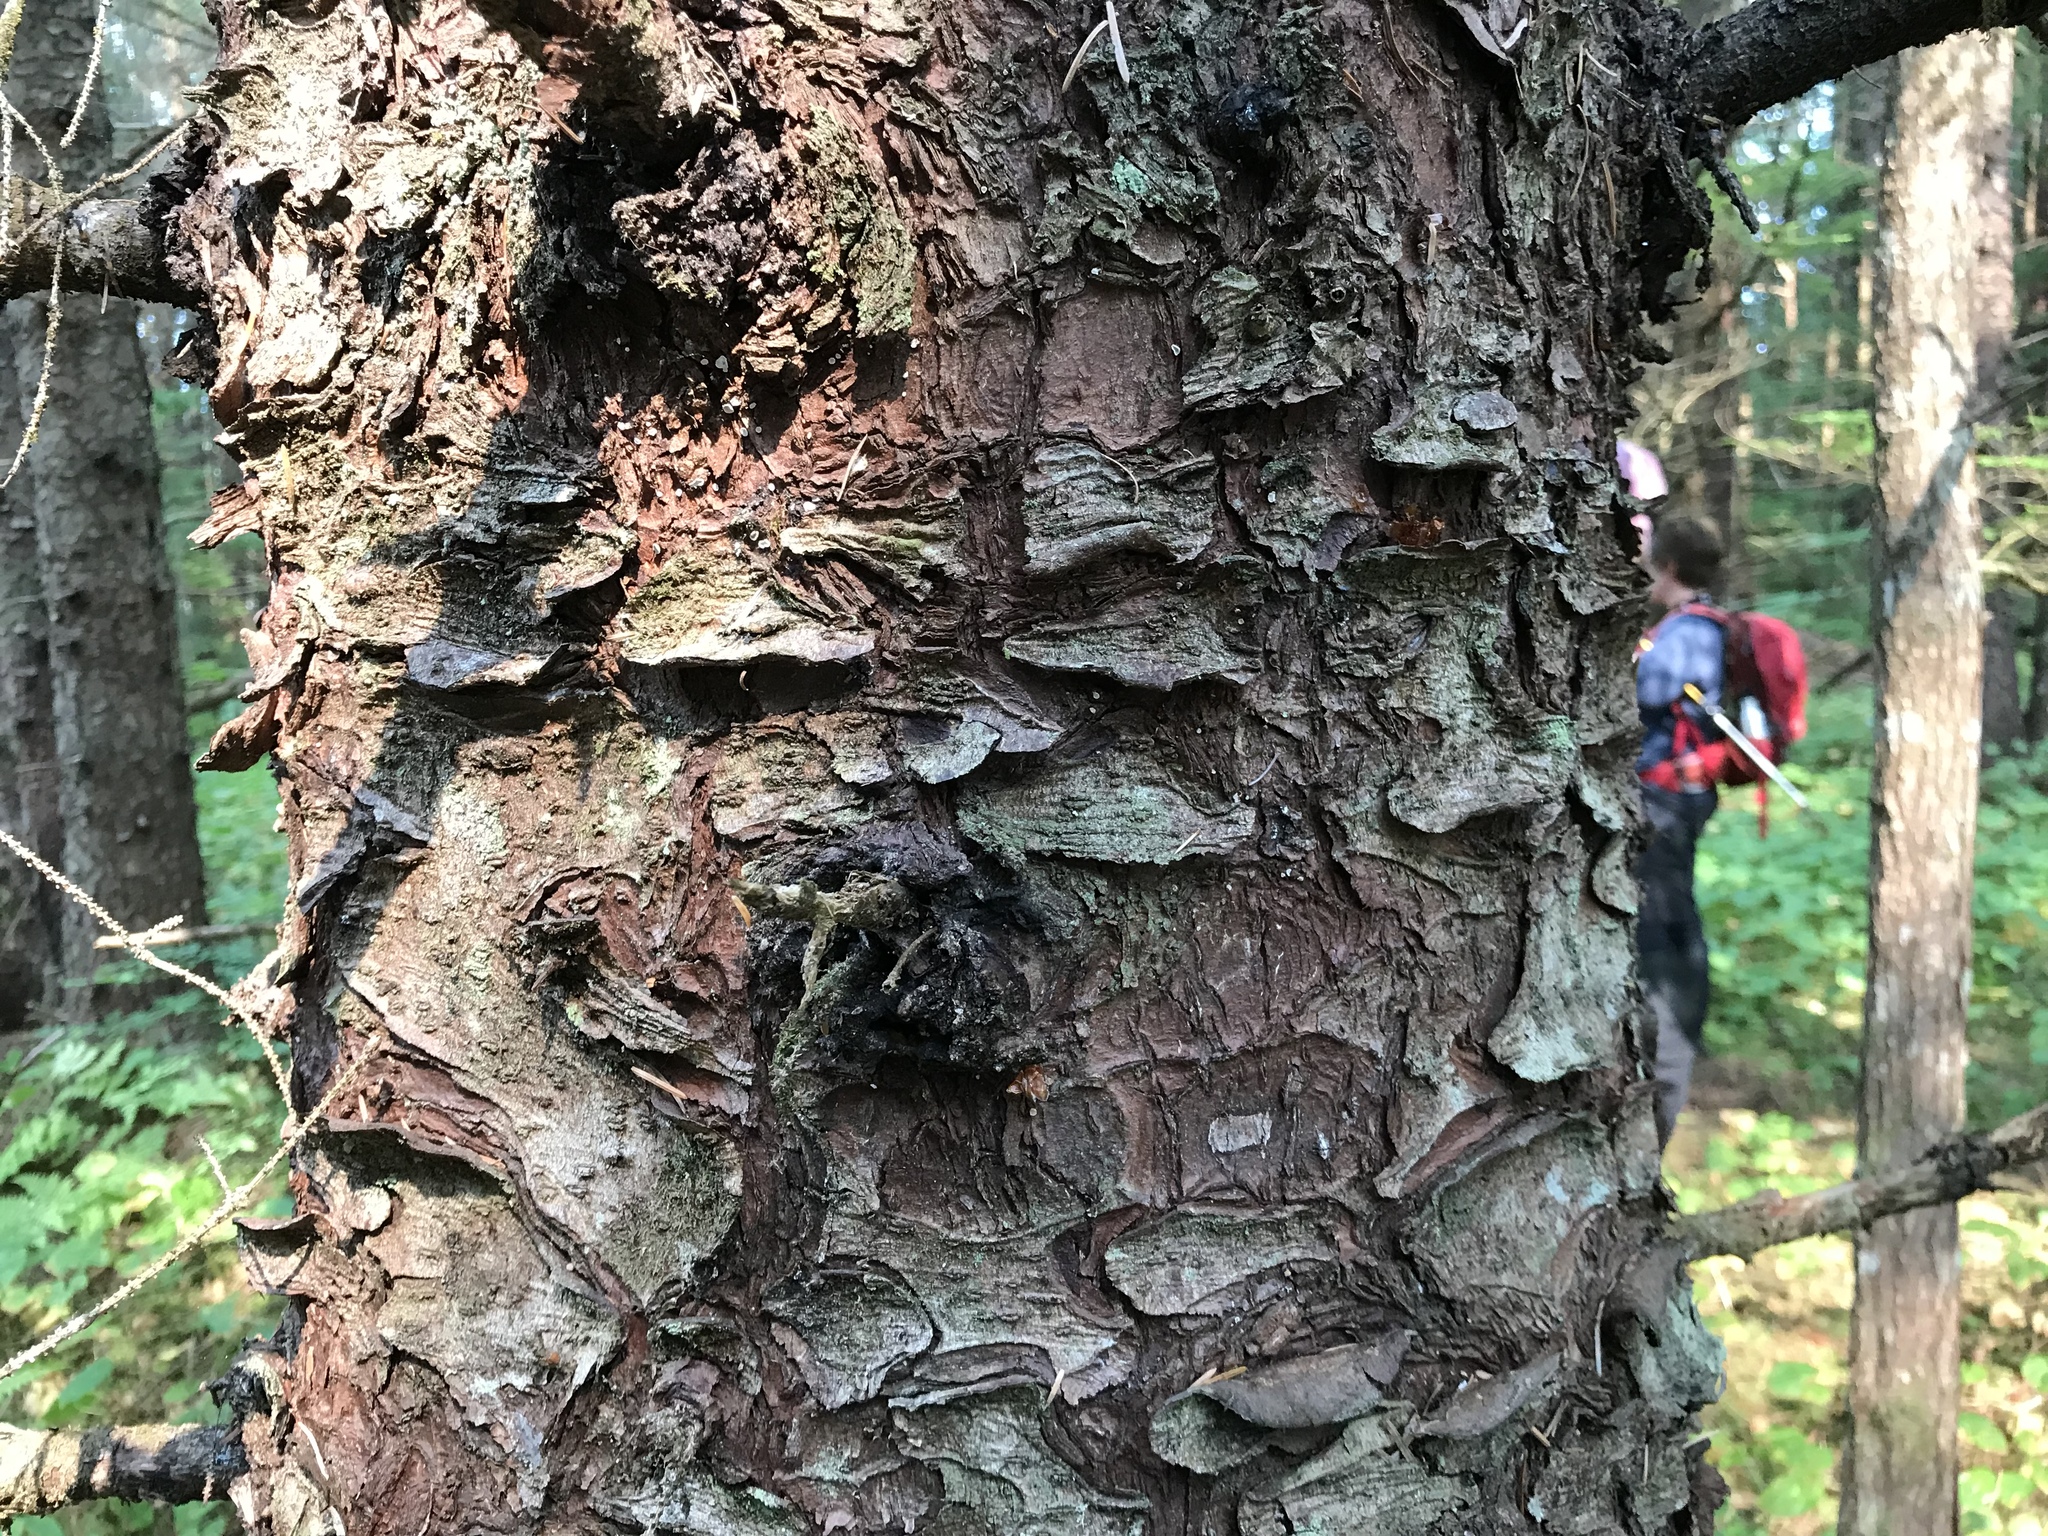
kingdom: Plantae
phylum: Tracheophyta
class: Pinopsida
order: Pinales
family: Pinaceae
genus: Picea
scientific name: Picea sitchensis
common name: Sitka spruce
